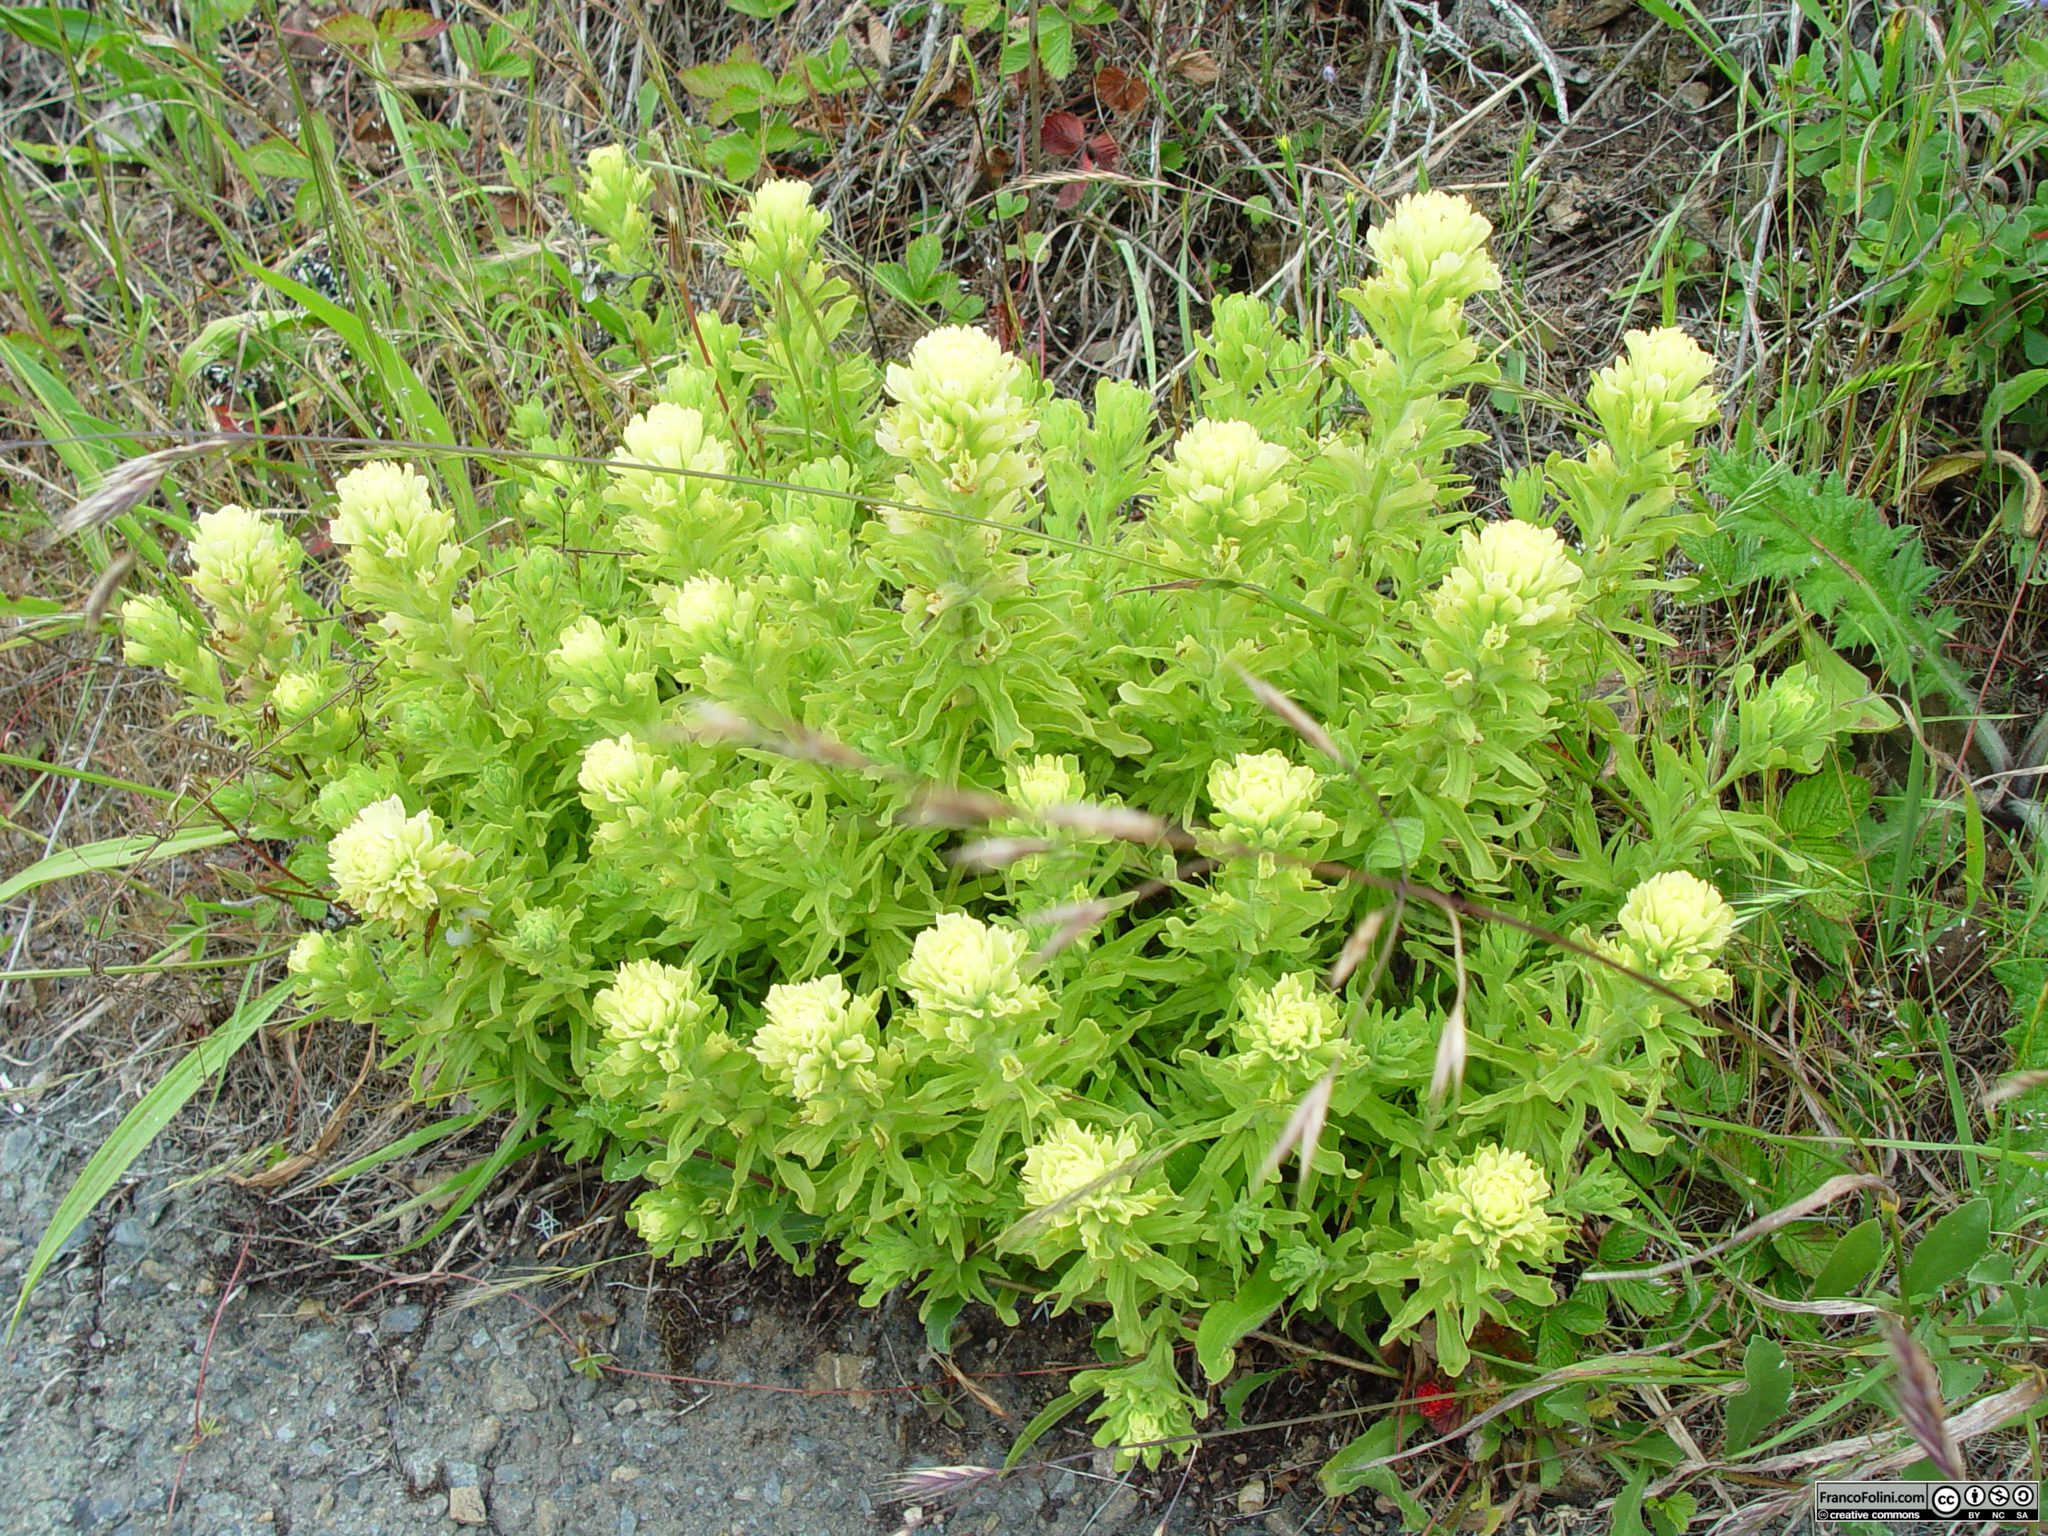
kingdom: Plantae
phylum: Tracheophyta
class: Magnoliopsida
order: Lamiales
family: Orobanchaceae
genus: Castilleja
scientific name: Castilleja wightii
